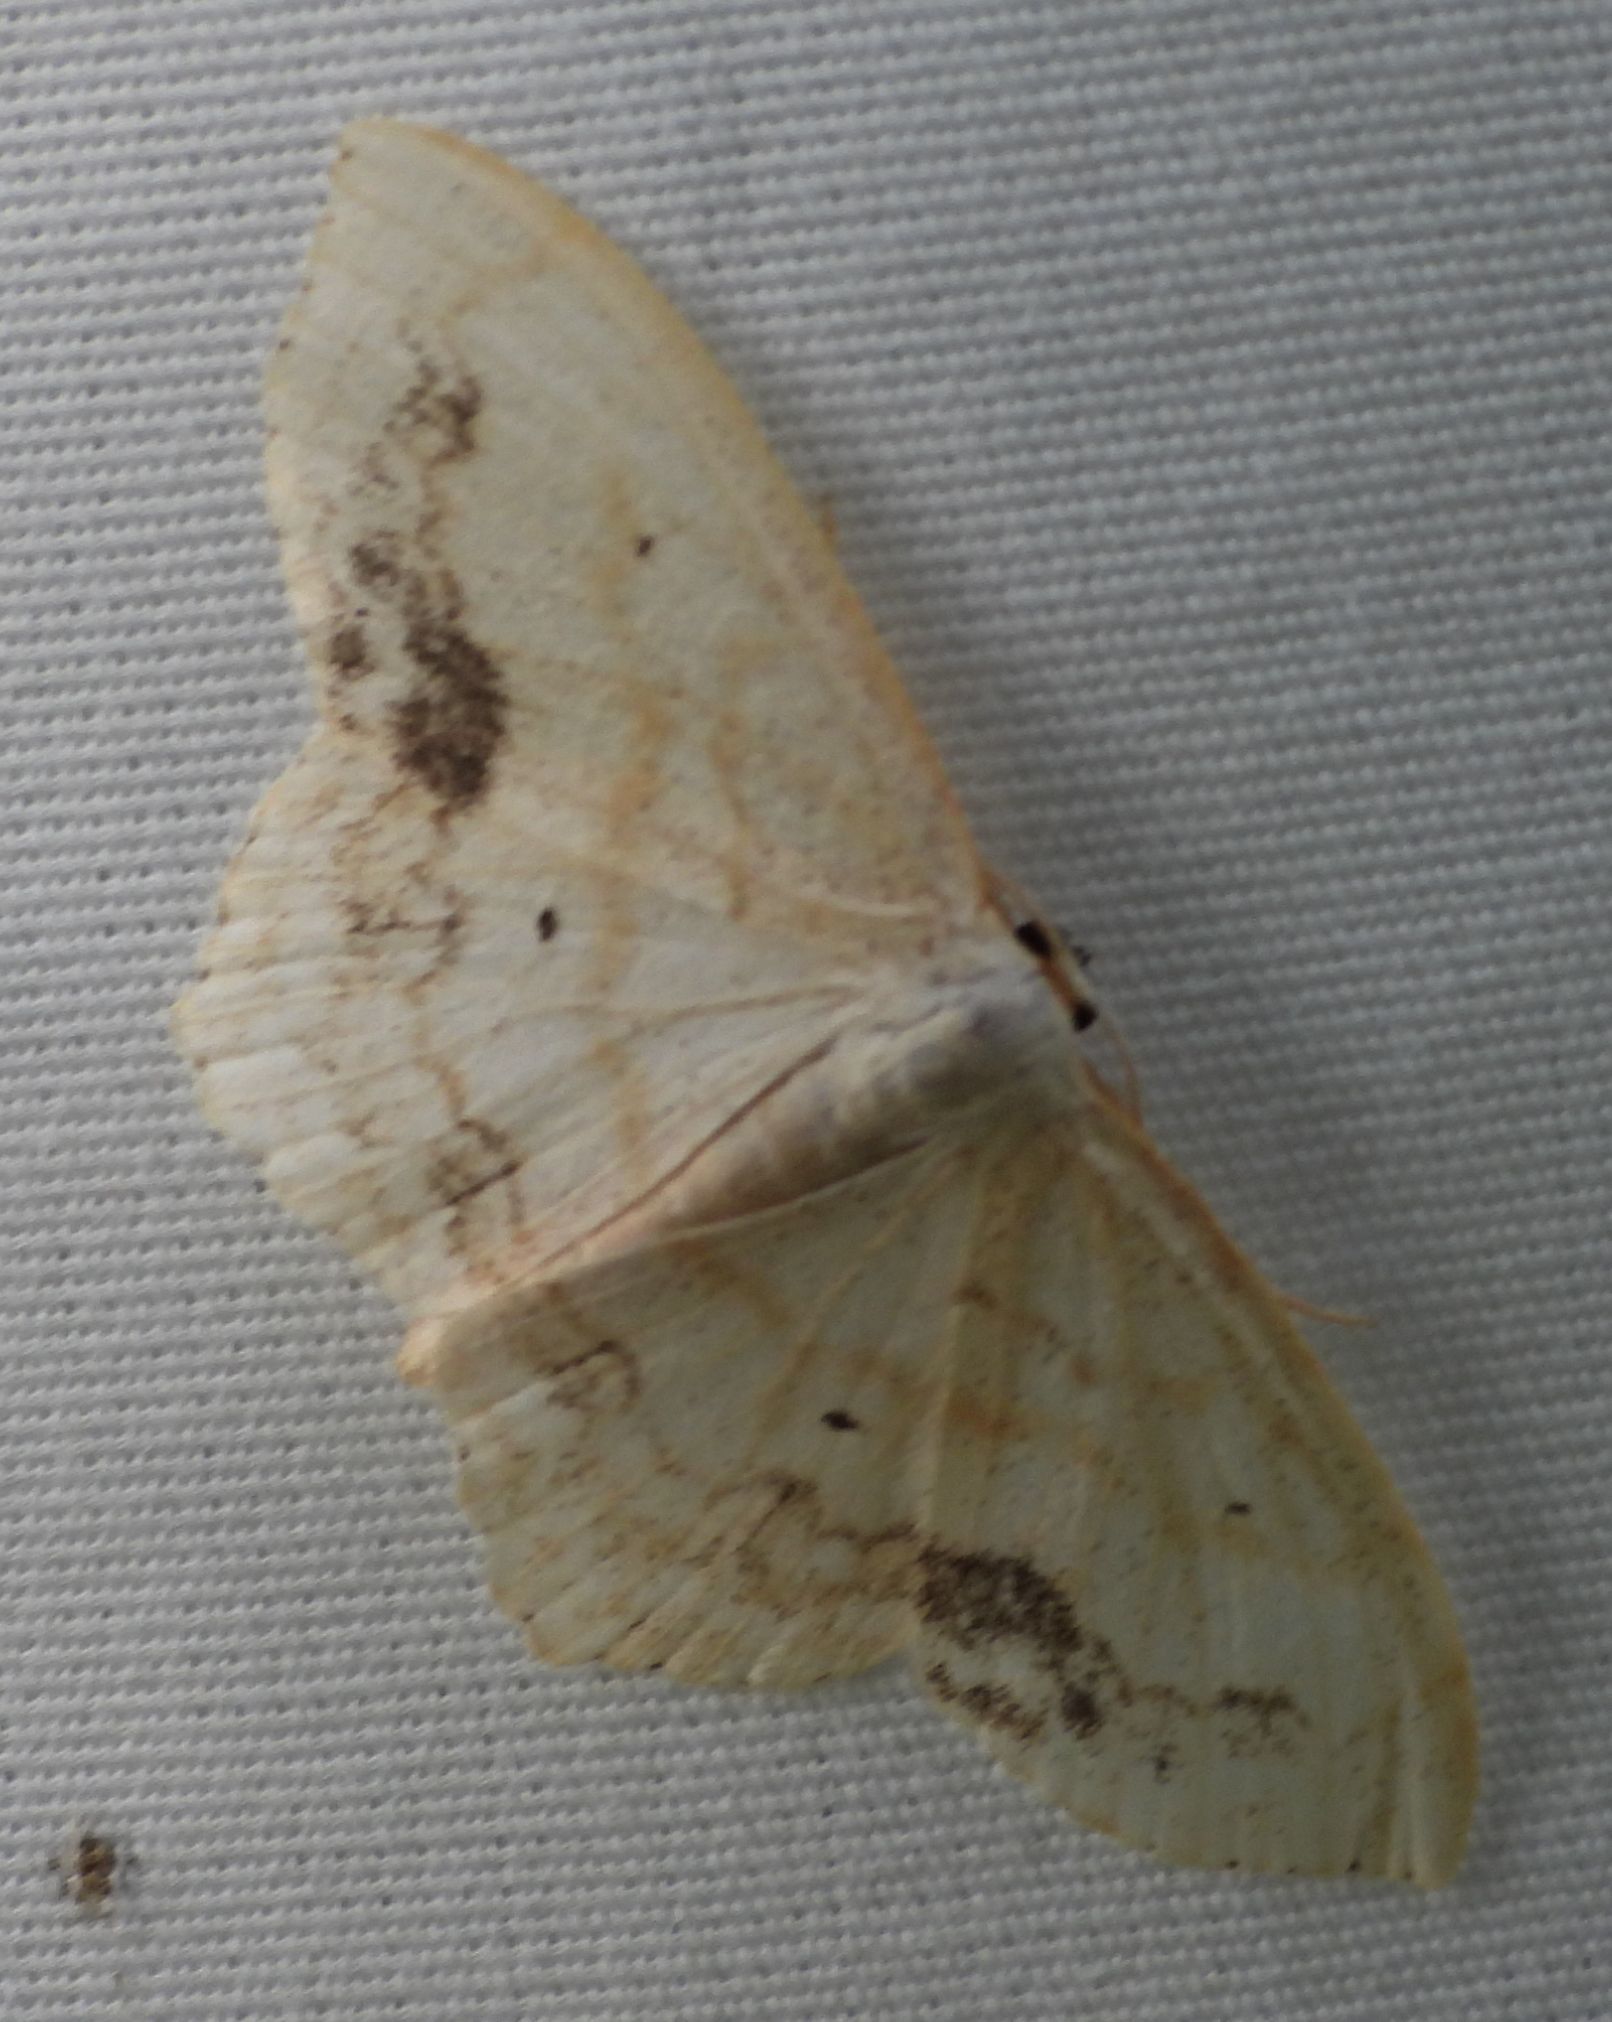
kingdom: Animalia
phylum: Arthropoda
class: Insecta
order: Lepidoptera
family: Geometridae
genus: Scopula
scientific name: Scopula limboundata
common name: Large lace border
